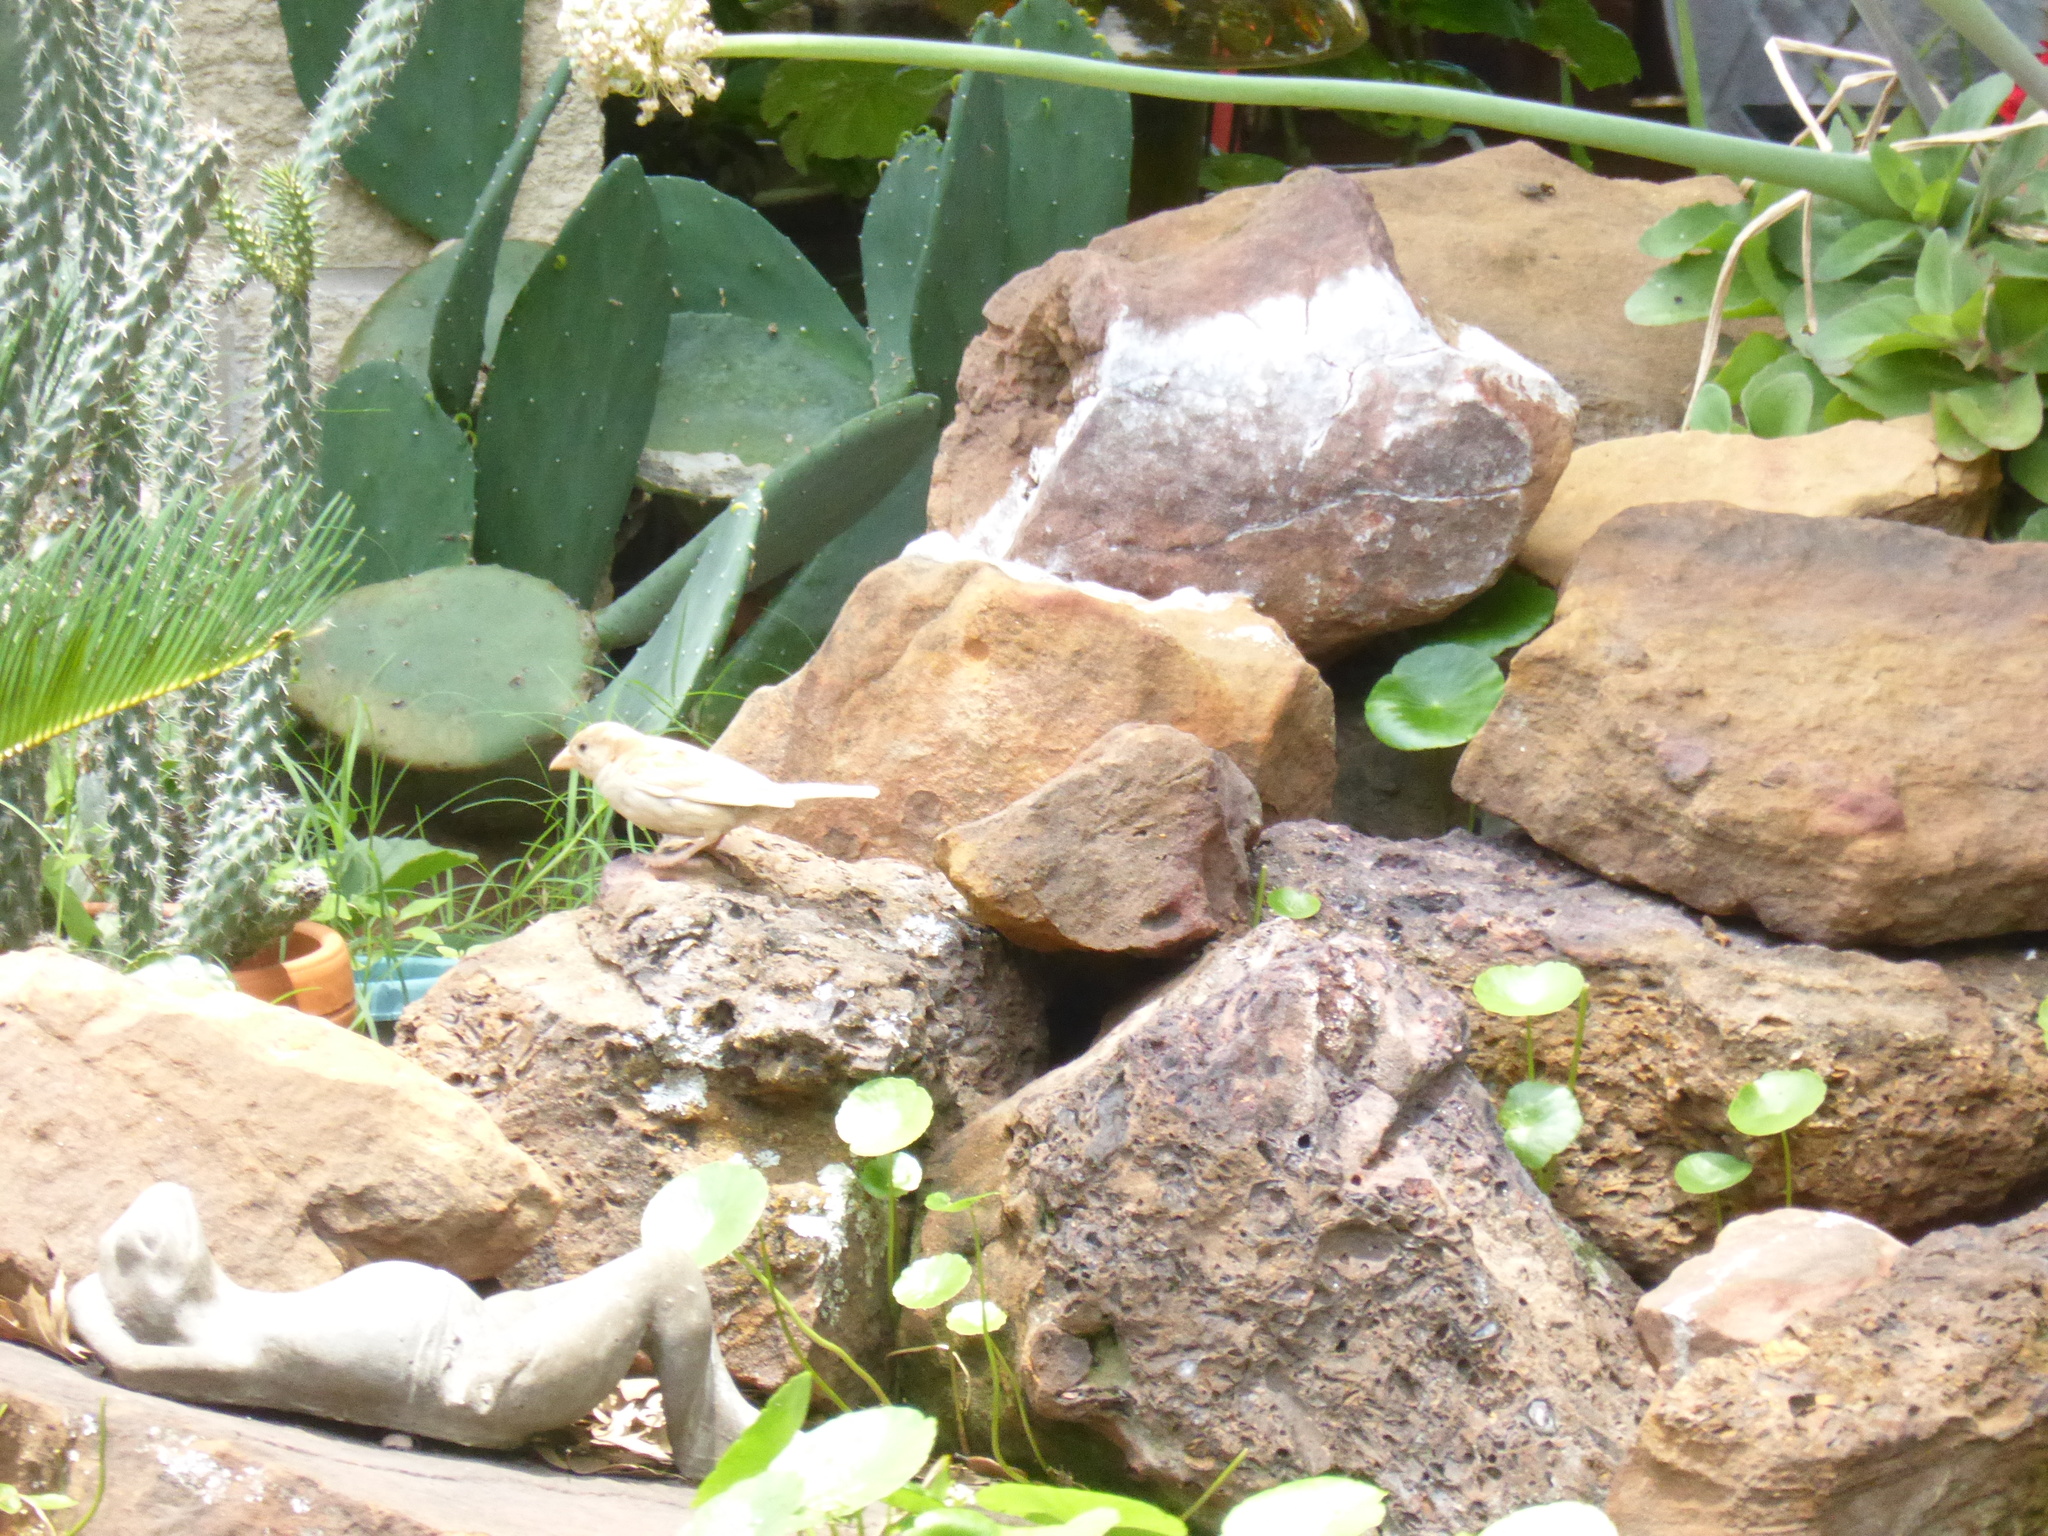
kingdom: Animalia
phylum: Chordata
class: Aves
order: Passeriformes
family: Passeridae
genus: Passer
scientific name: Passer domesticus
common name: House sparrow
